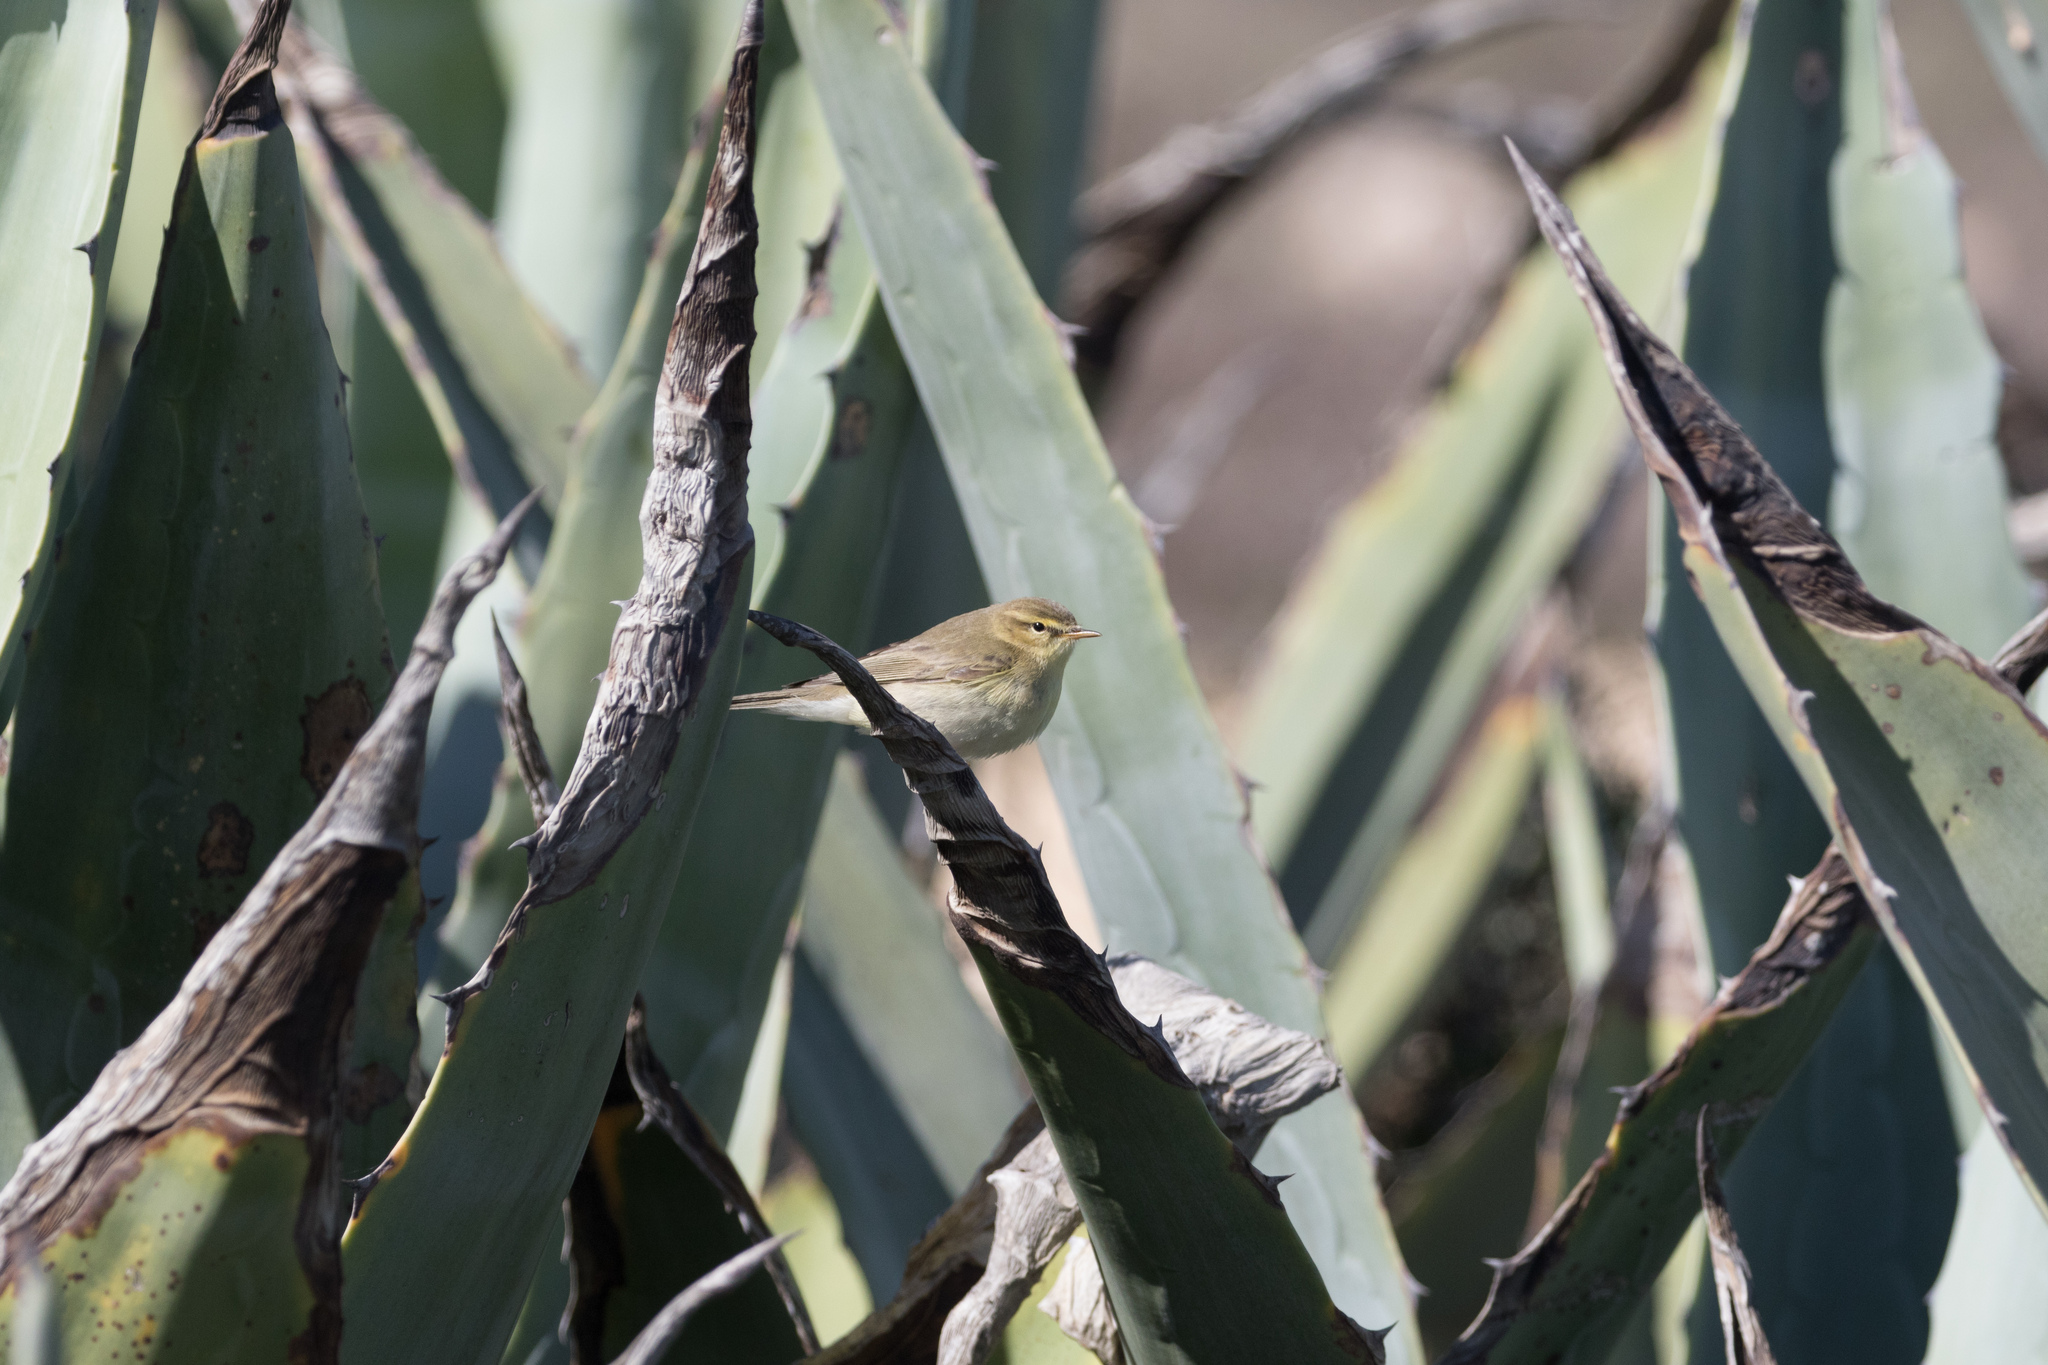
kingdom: Animalia
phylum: Chordata
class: Aves
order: Passeriformes
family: Phylloscopidae
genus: Phylloscopus
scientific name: Phylloscopus trochilus
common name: Willow warbler
